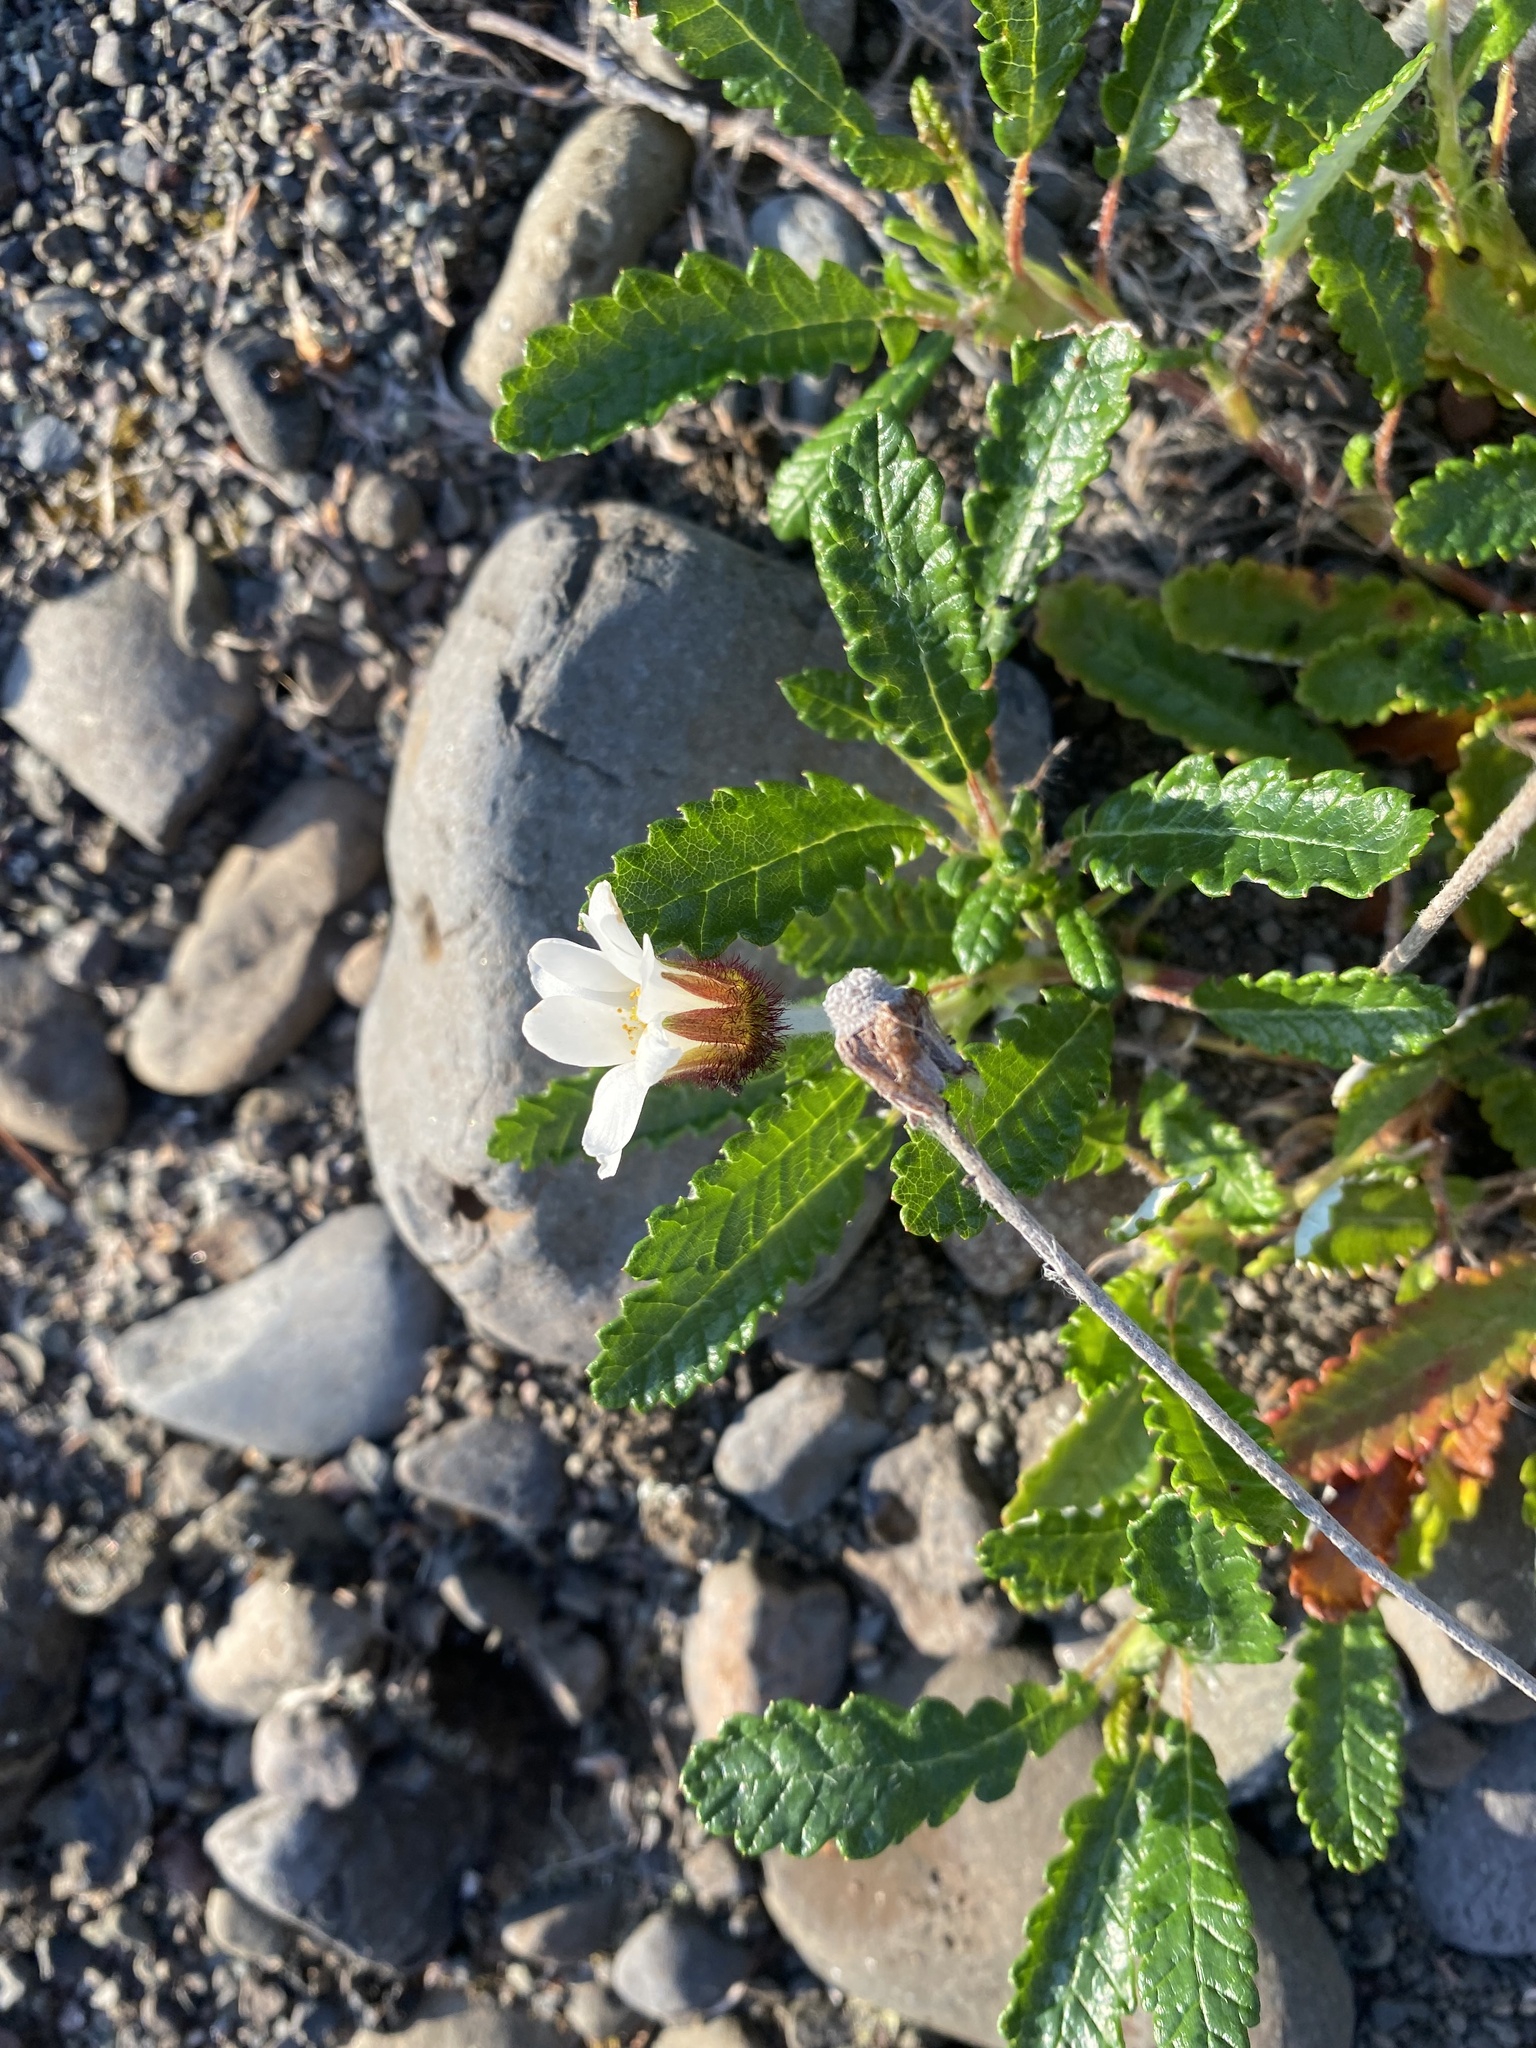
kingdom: Plantae
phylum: Tracheophyta
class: Magnoliopsida
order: Rosales
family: Rosaceae
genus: Dryas
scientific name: Dryas grandis
